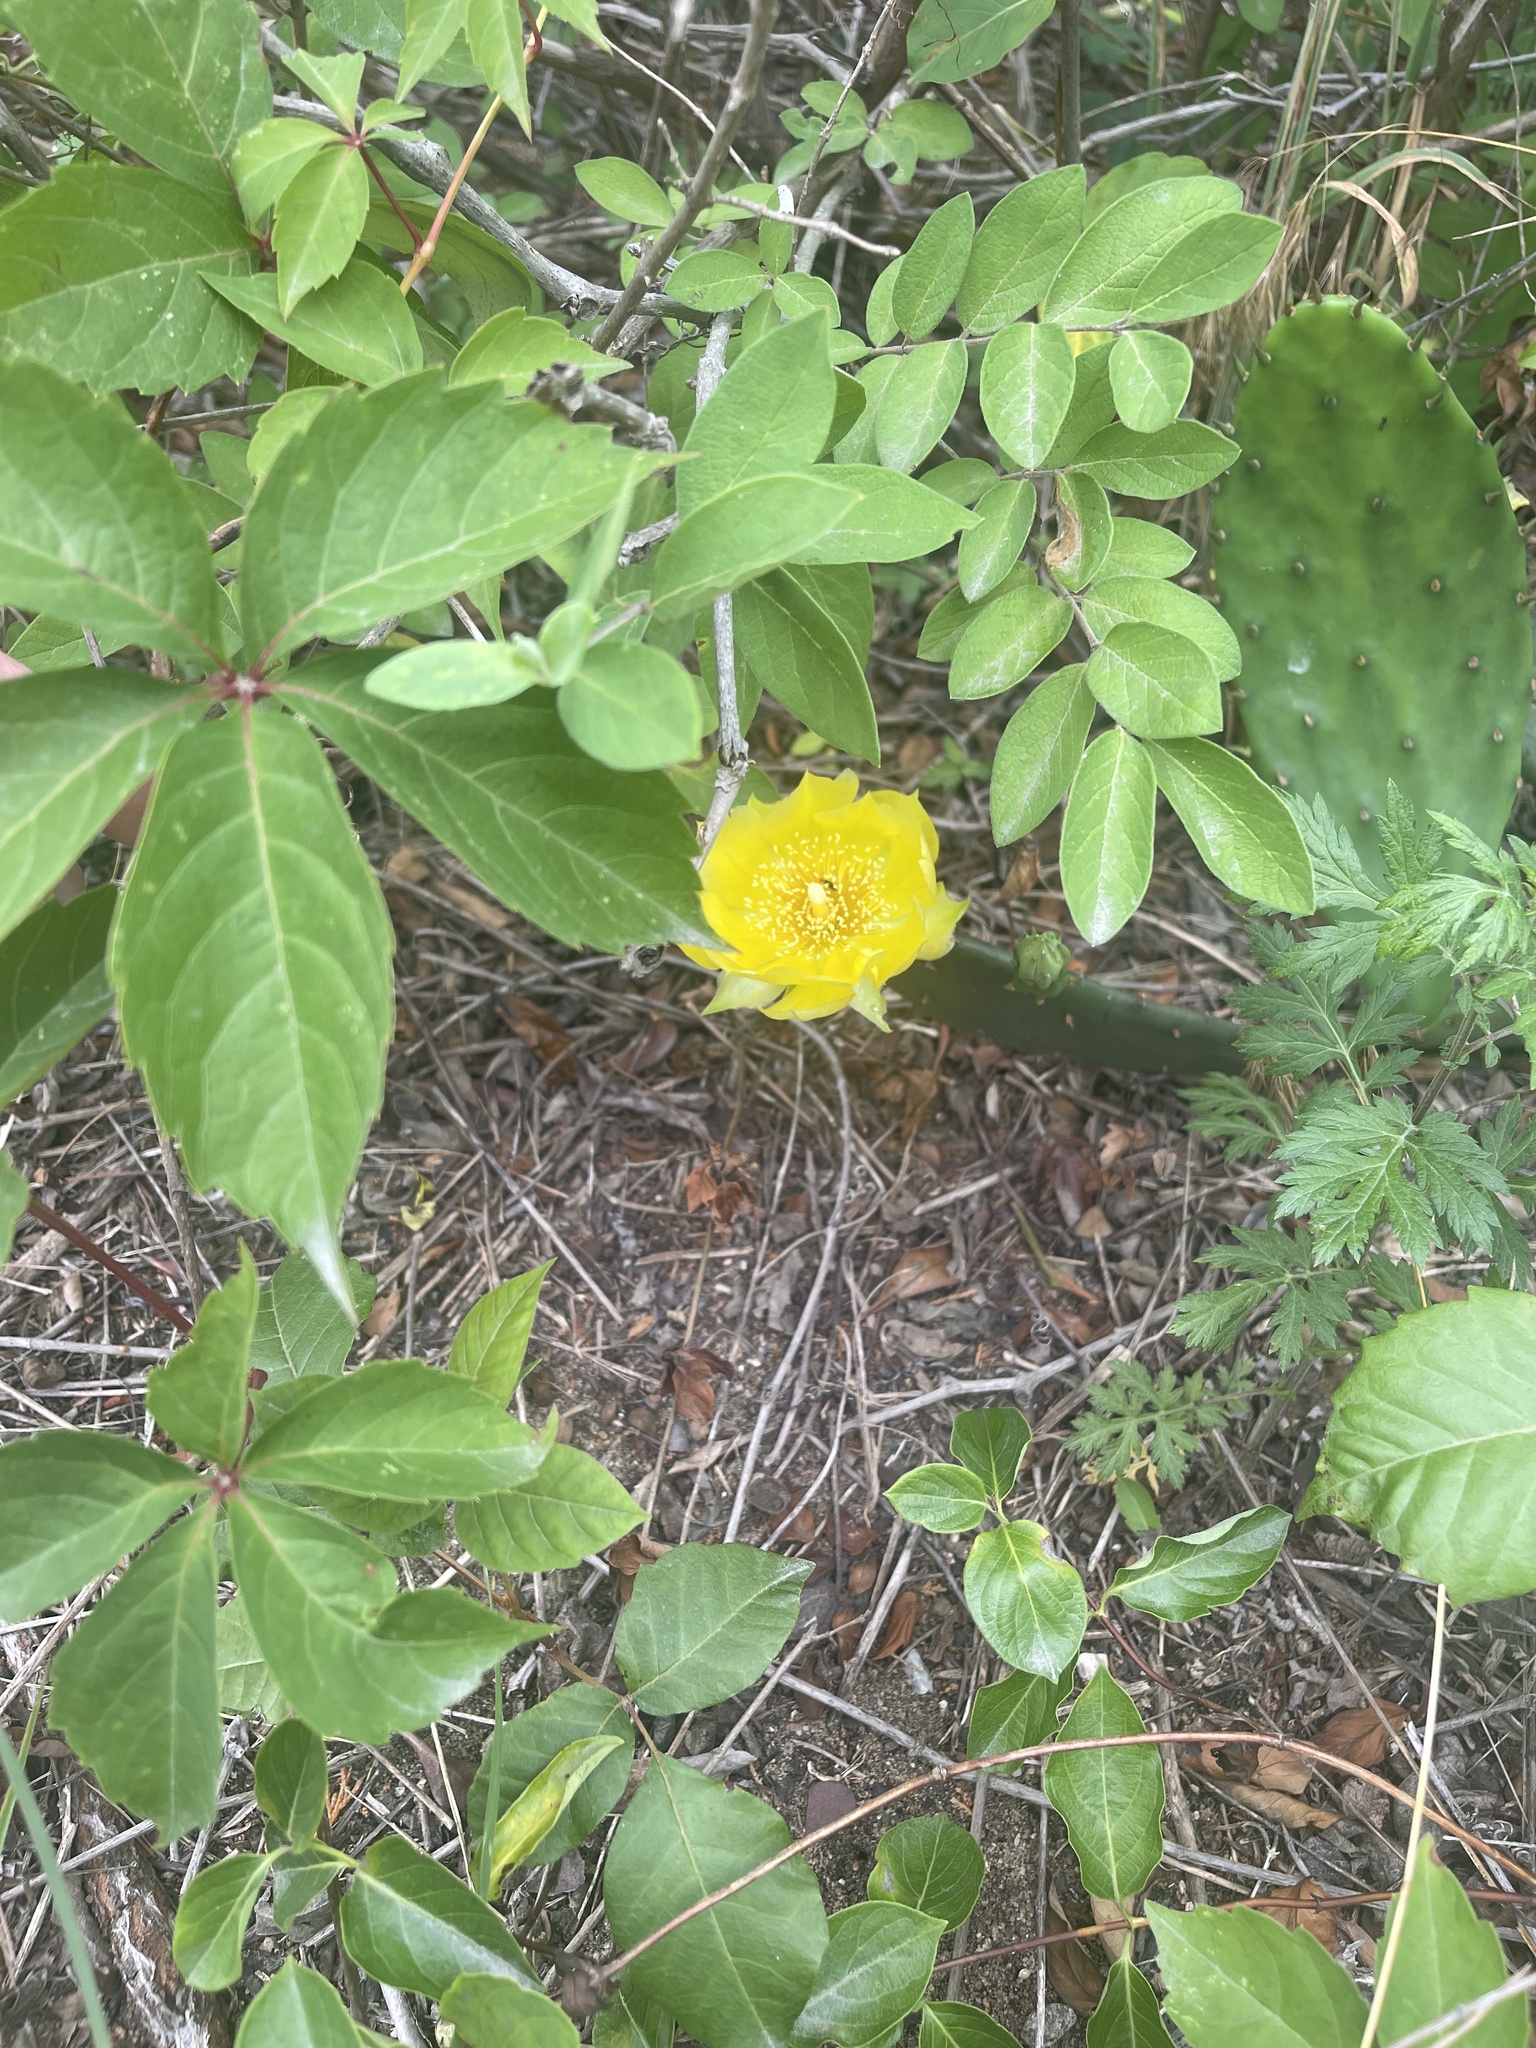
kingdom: Plantae
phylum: Tracheophyta
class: Magnoliopsida
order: Caryophyllales
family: Cactaceae
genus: Opuntia
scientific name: Opuntia humifusa
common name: Eastern prickly-pear
